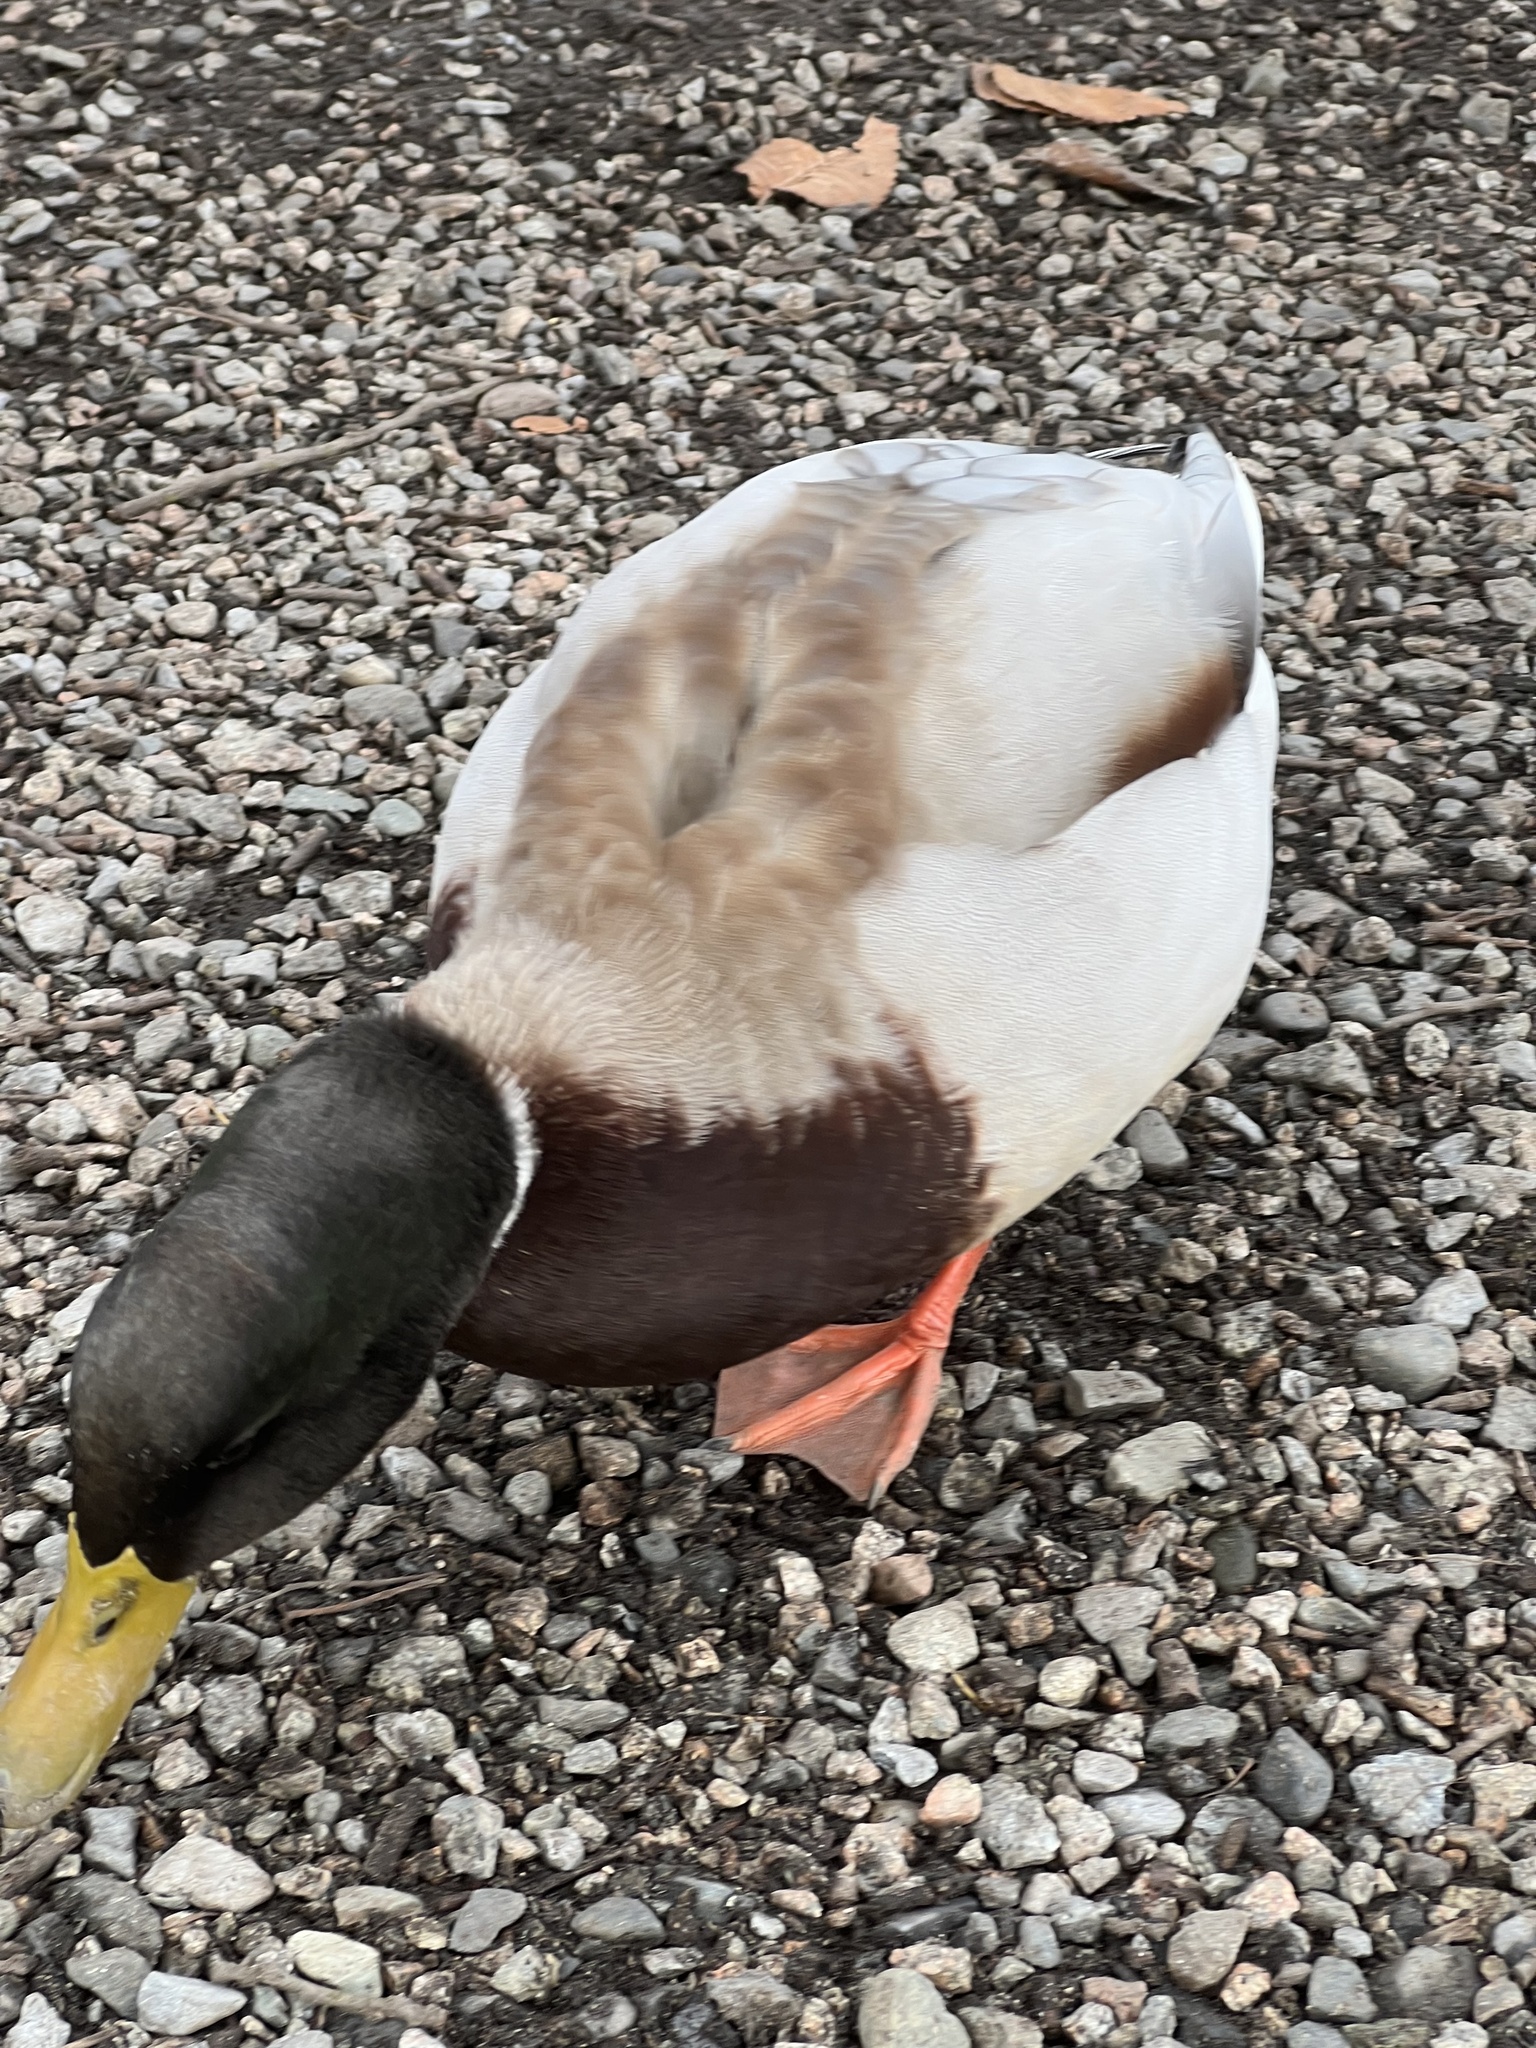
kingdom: Animalia
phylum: Chordata
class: Aves
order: Anseriformes
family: Anatidae
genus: Anas
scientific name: Anas platyrhynchos
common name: Mallard
